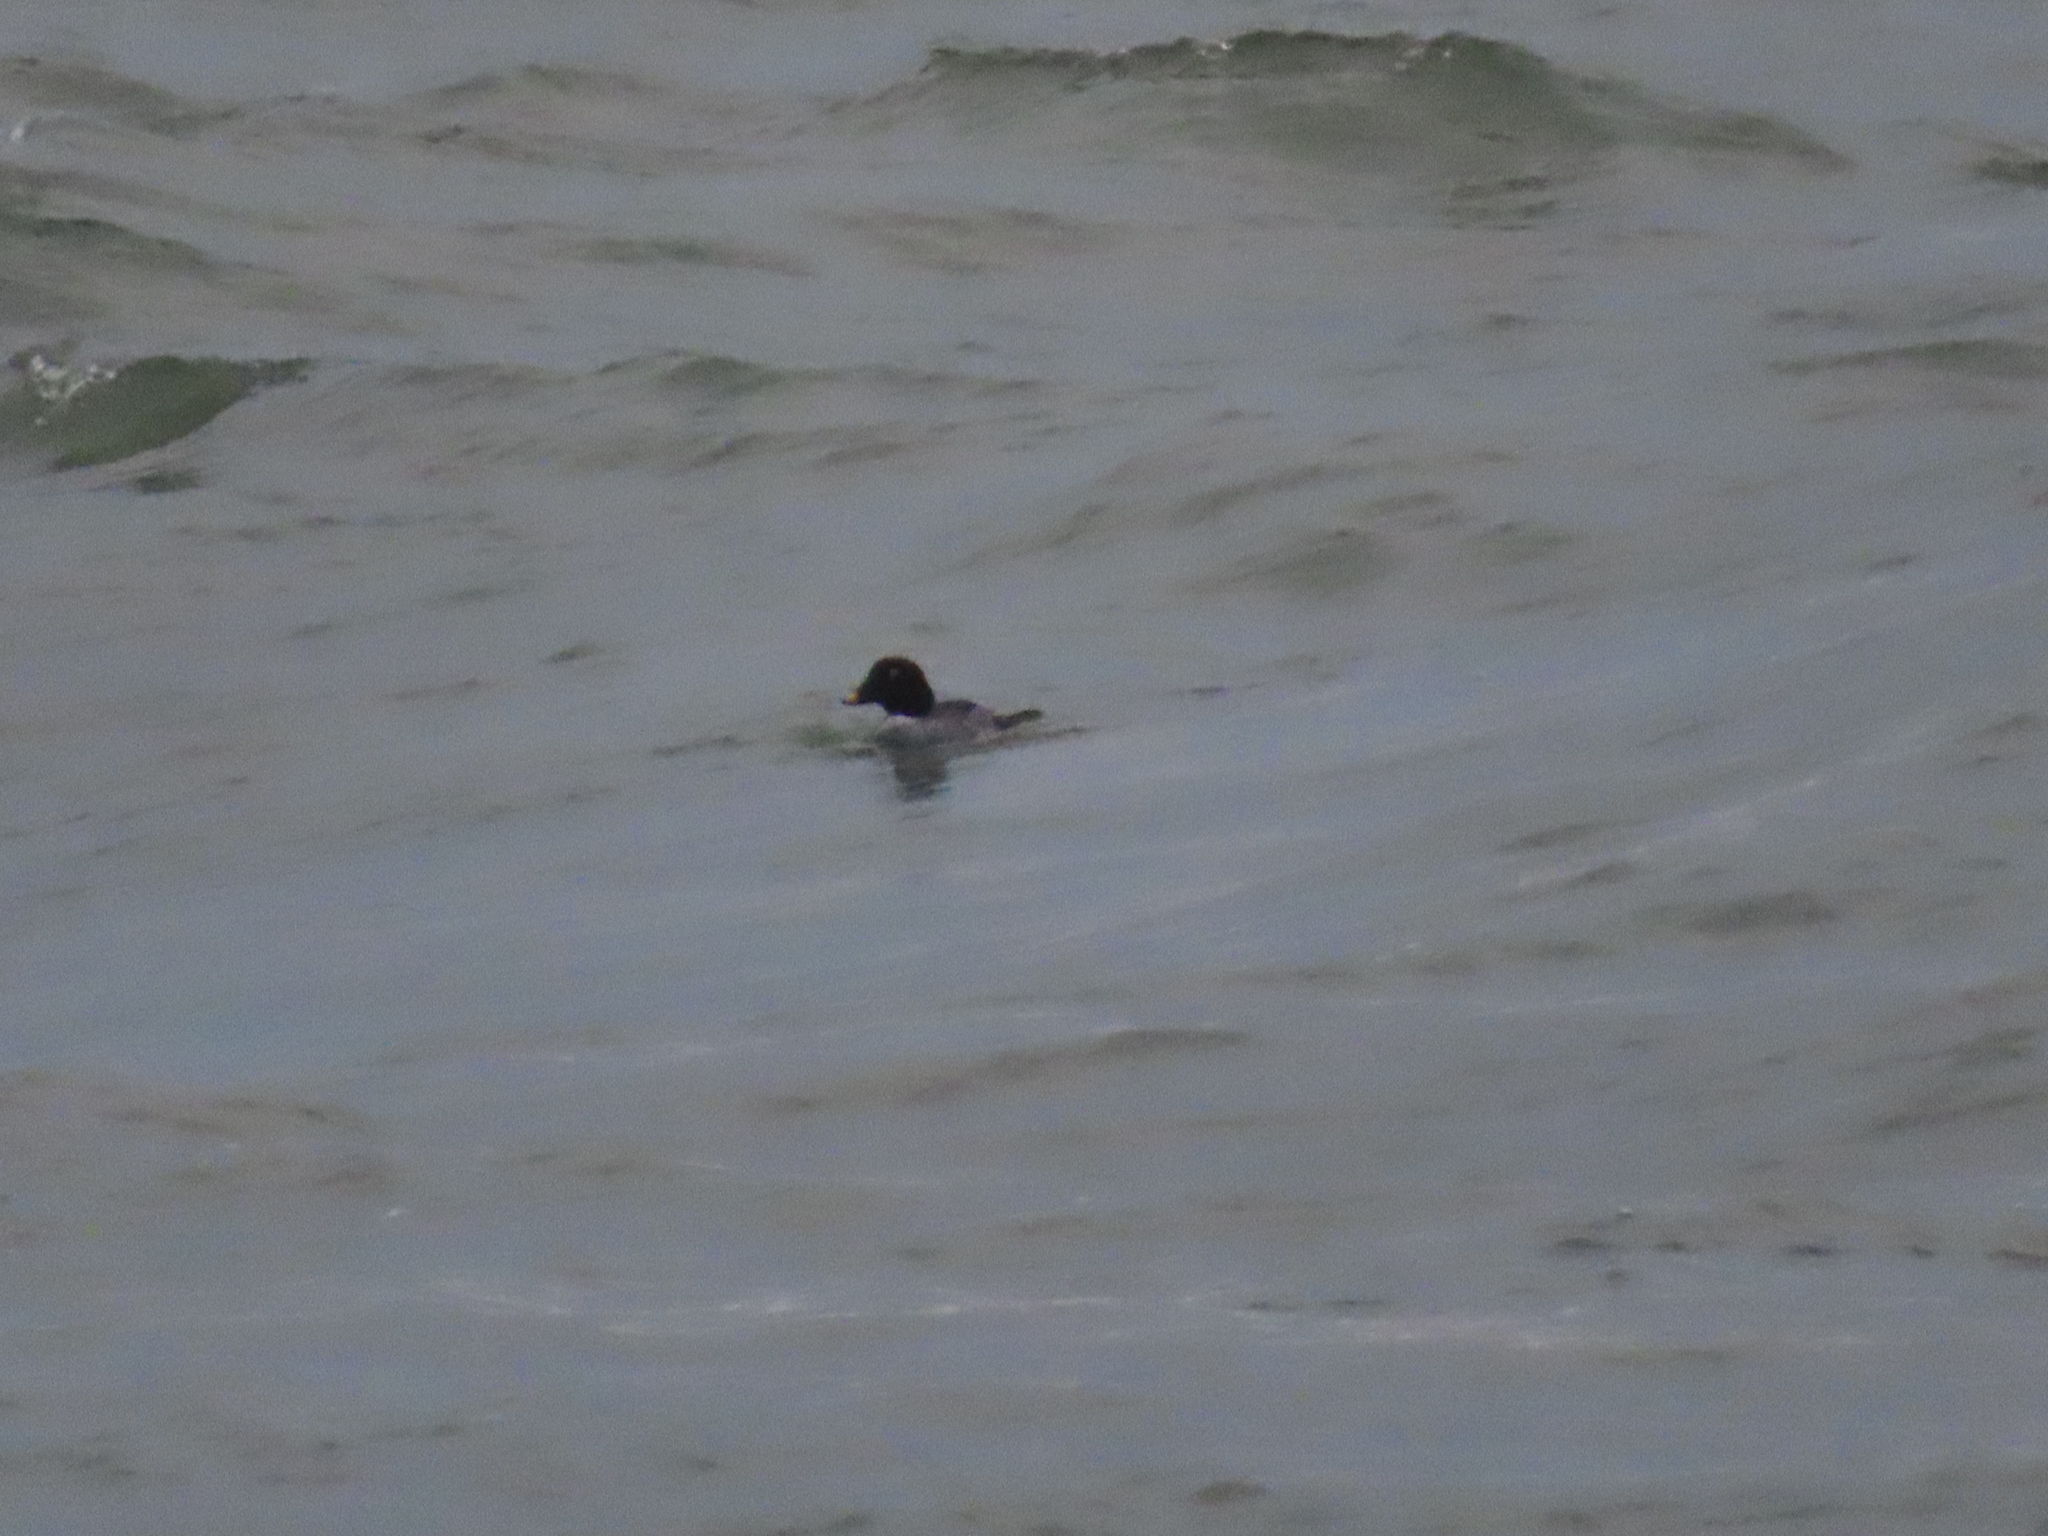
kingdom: Animalia
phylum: Chordata
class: Aves
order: Anseriformes
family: Anatidae
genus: Bucephala
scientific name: Bucephala clangula
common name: Common goldeneye
